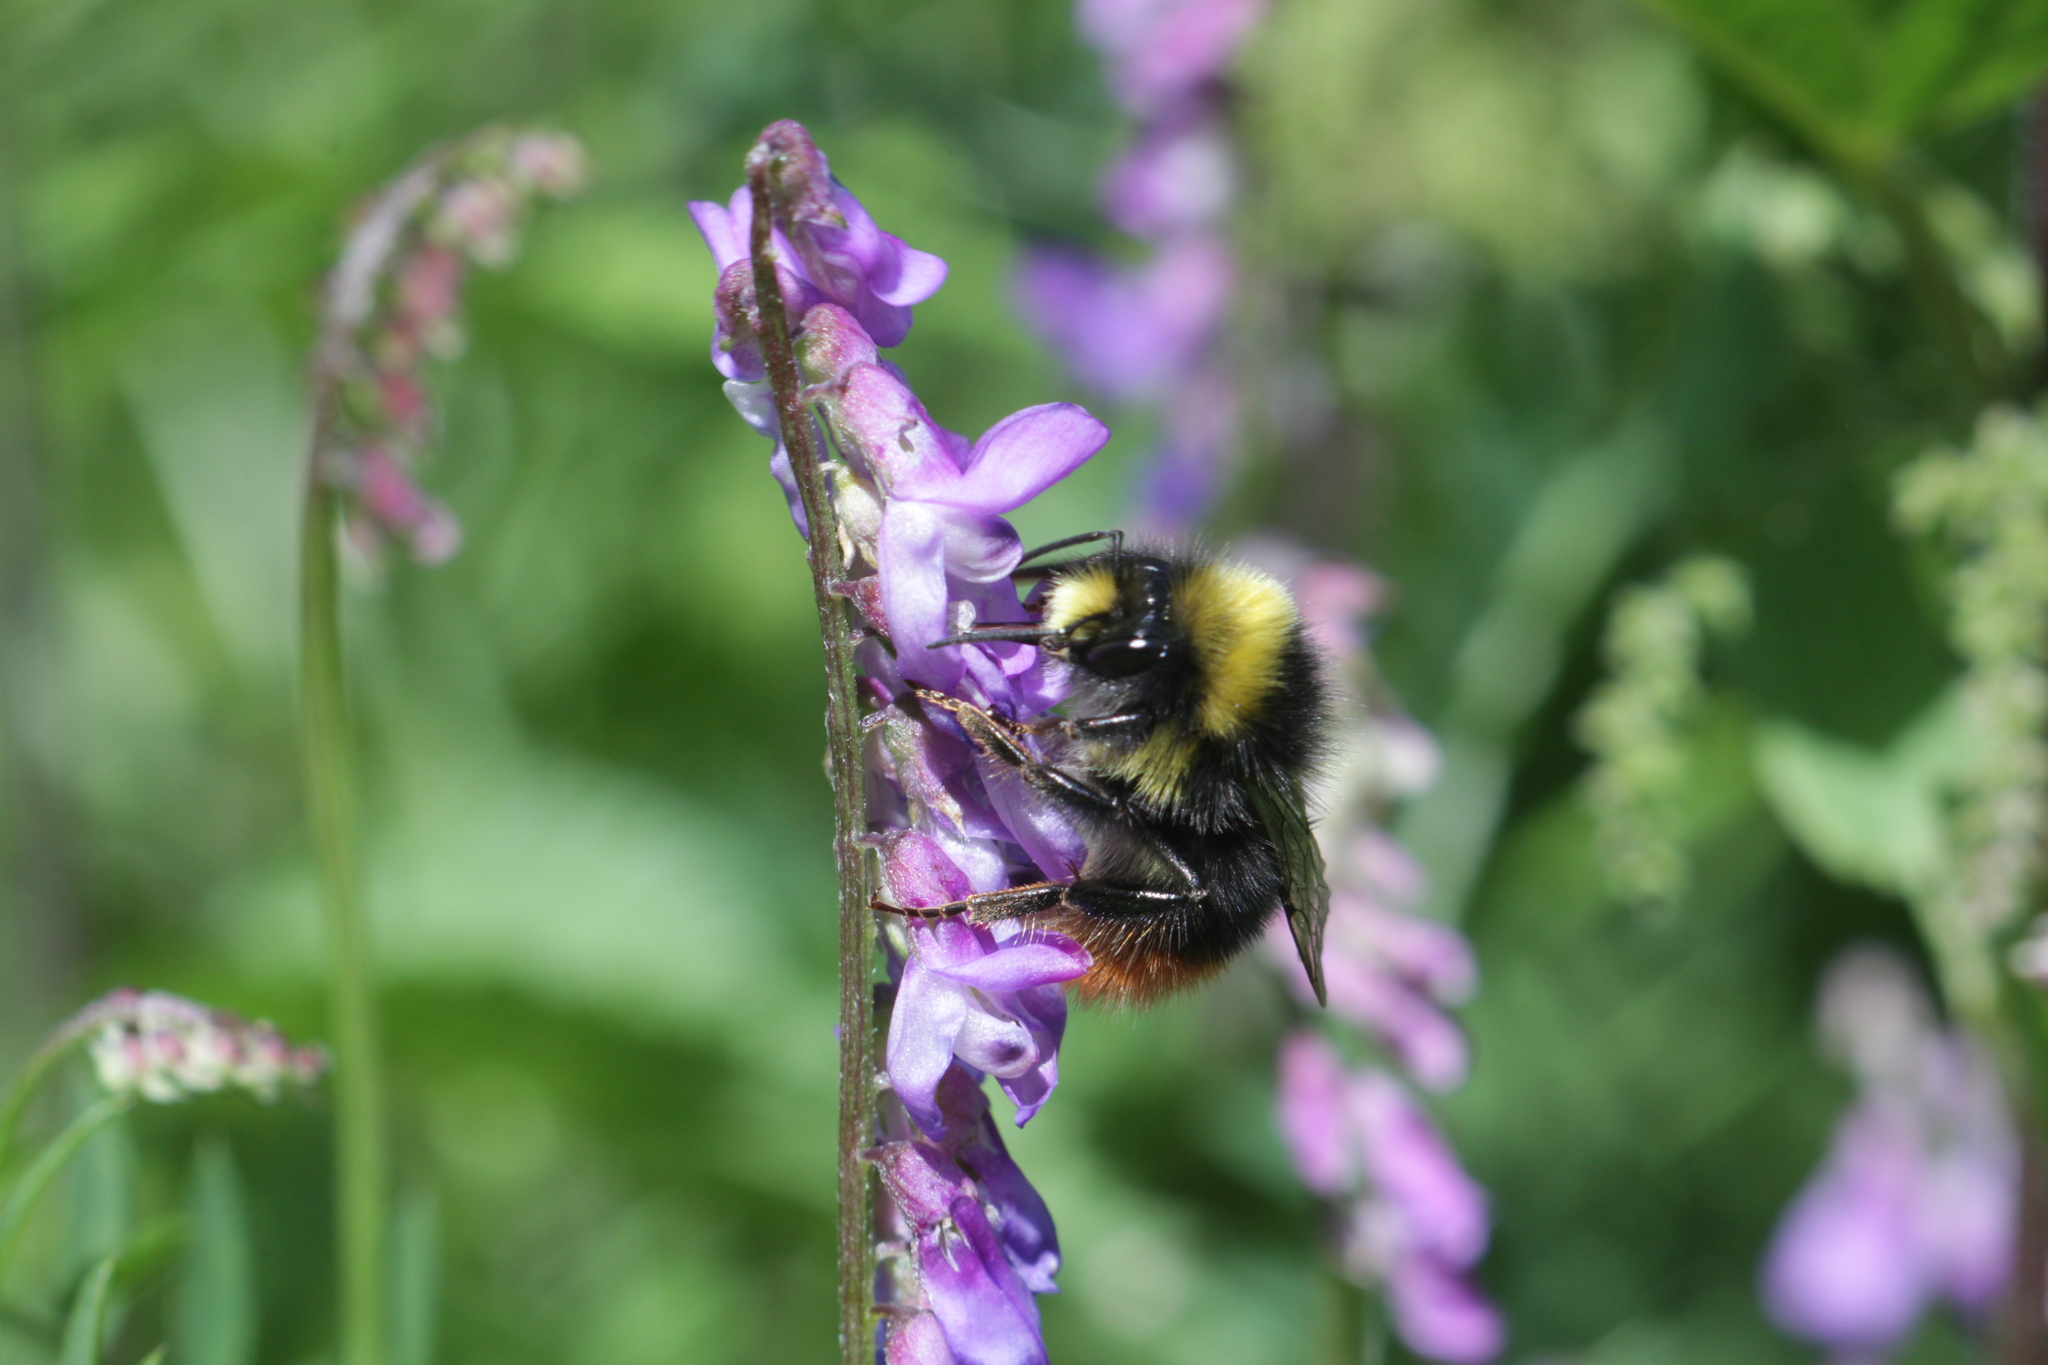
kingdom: Animalia
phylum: Arthropoda
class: Insecta
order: Hymenoptera
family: Apidae
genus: Bombus
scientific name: Bombus lapidarius
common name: Large red-tailed humble-bee
